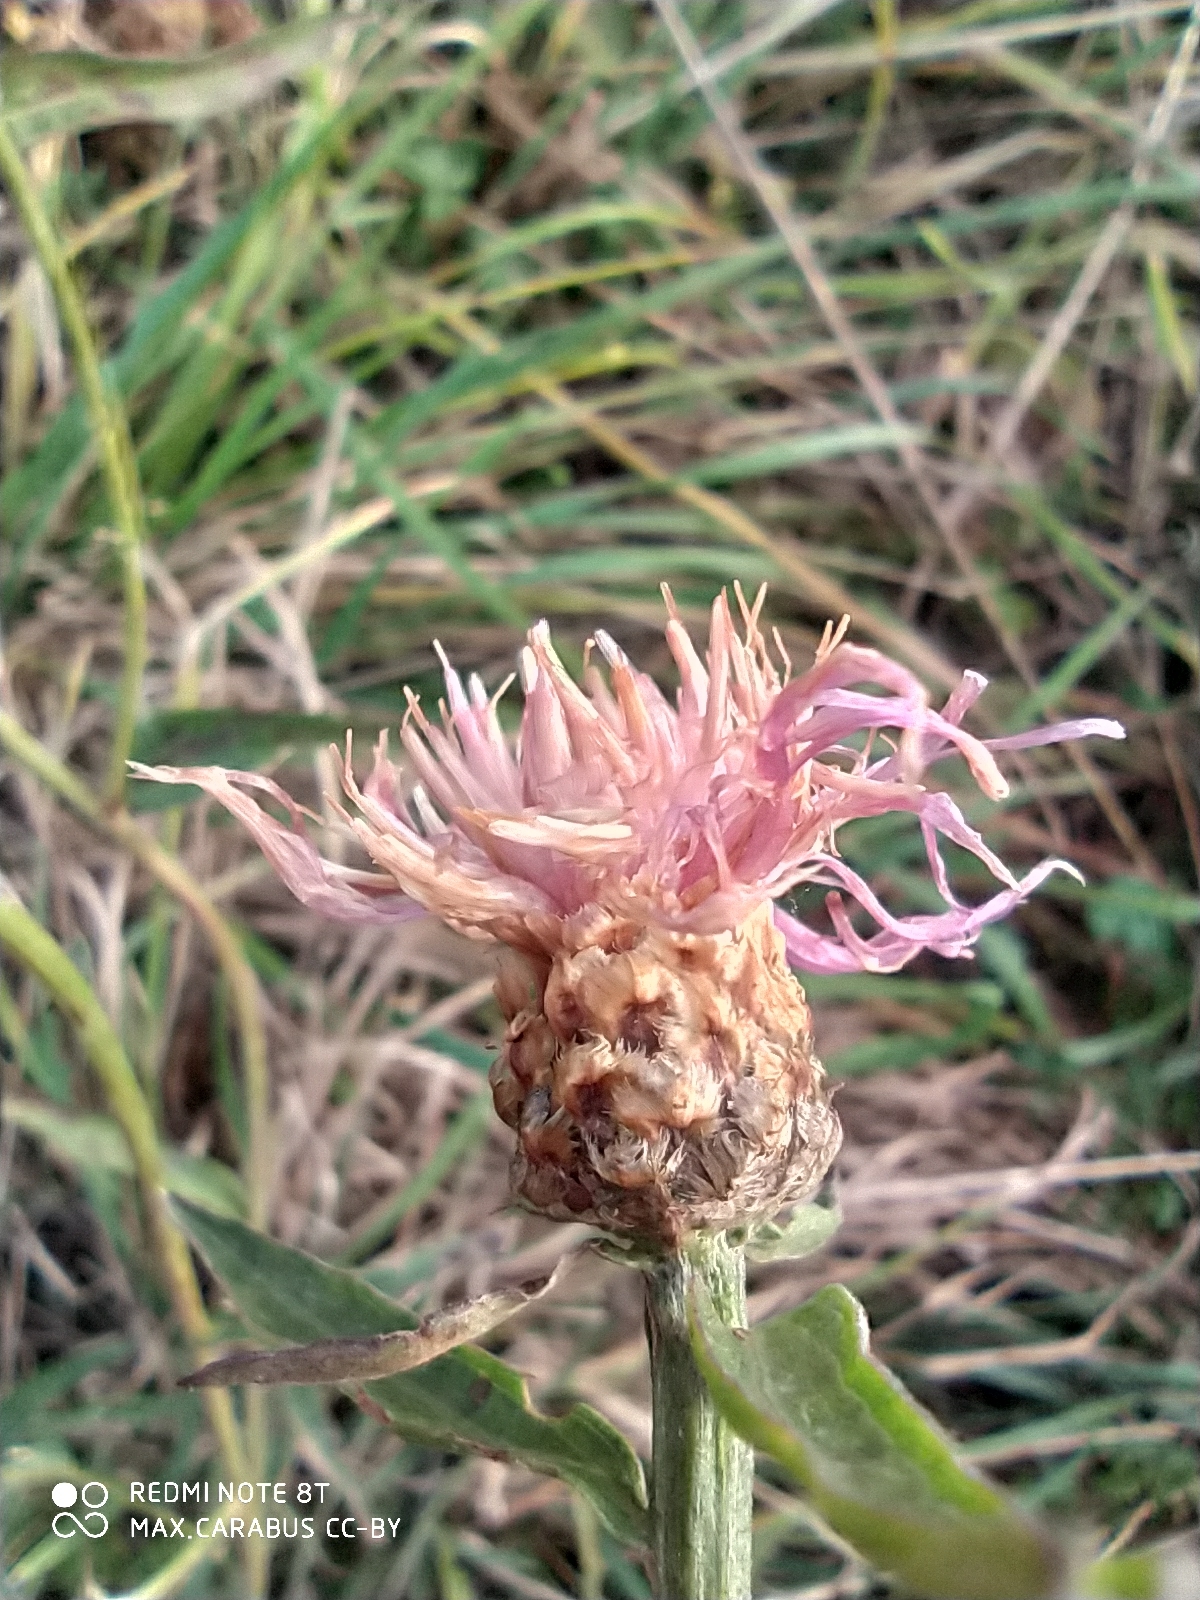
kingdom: Plantae
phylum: Tracheophyta
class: Magnoliopsida
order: Asterales
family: Asteraceae
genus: Centaurea
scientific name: Centaurea jacea
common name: Brown knapweed
